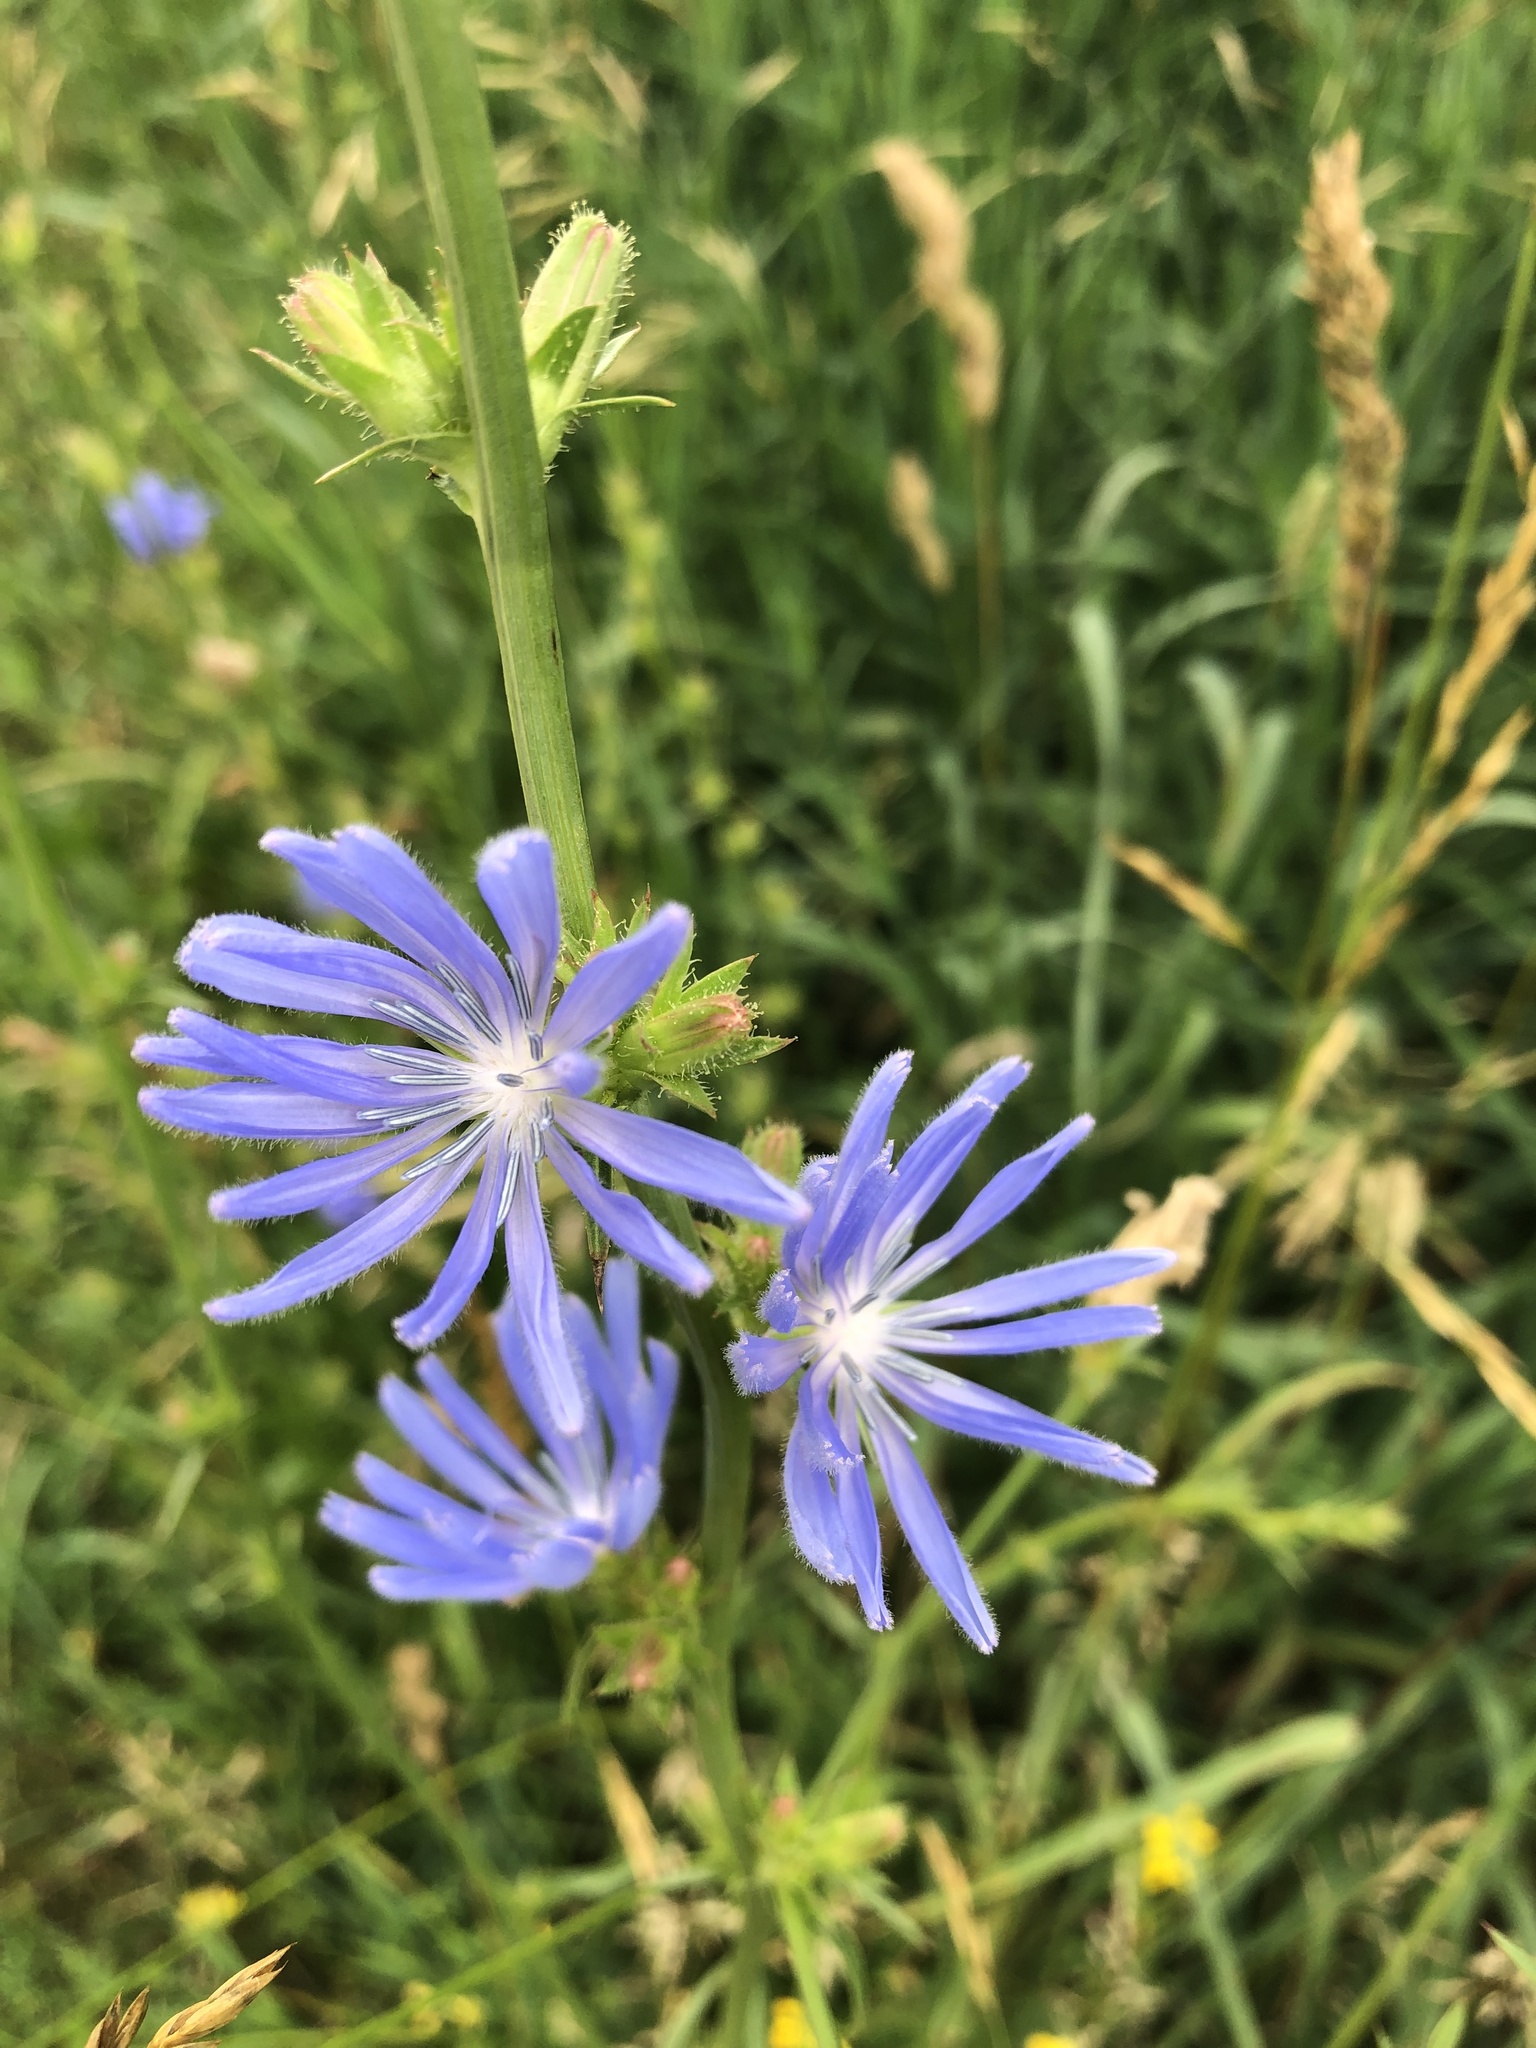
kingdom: Plantae
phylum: Tracheophyta
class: Magnoliopsida
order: Asterales
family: Asteraceae
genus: Cichorium
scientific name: Cichorium intybus
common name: Chicory
